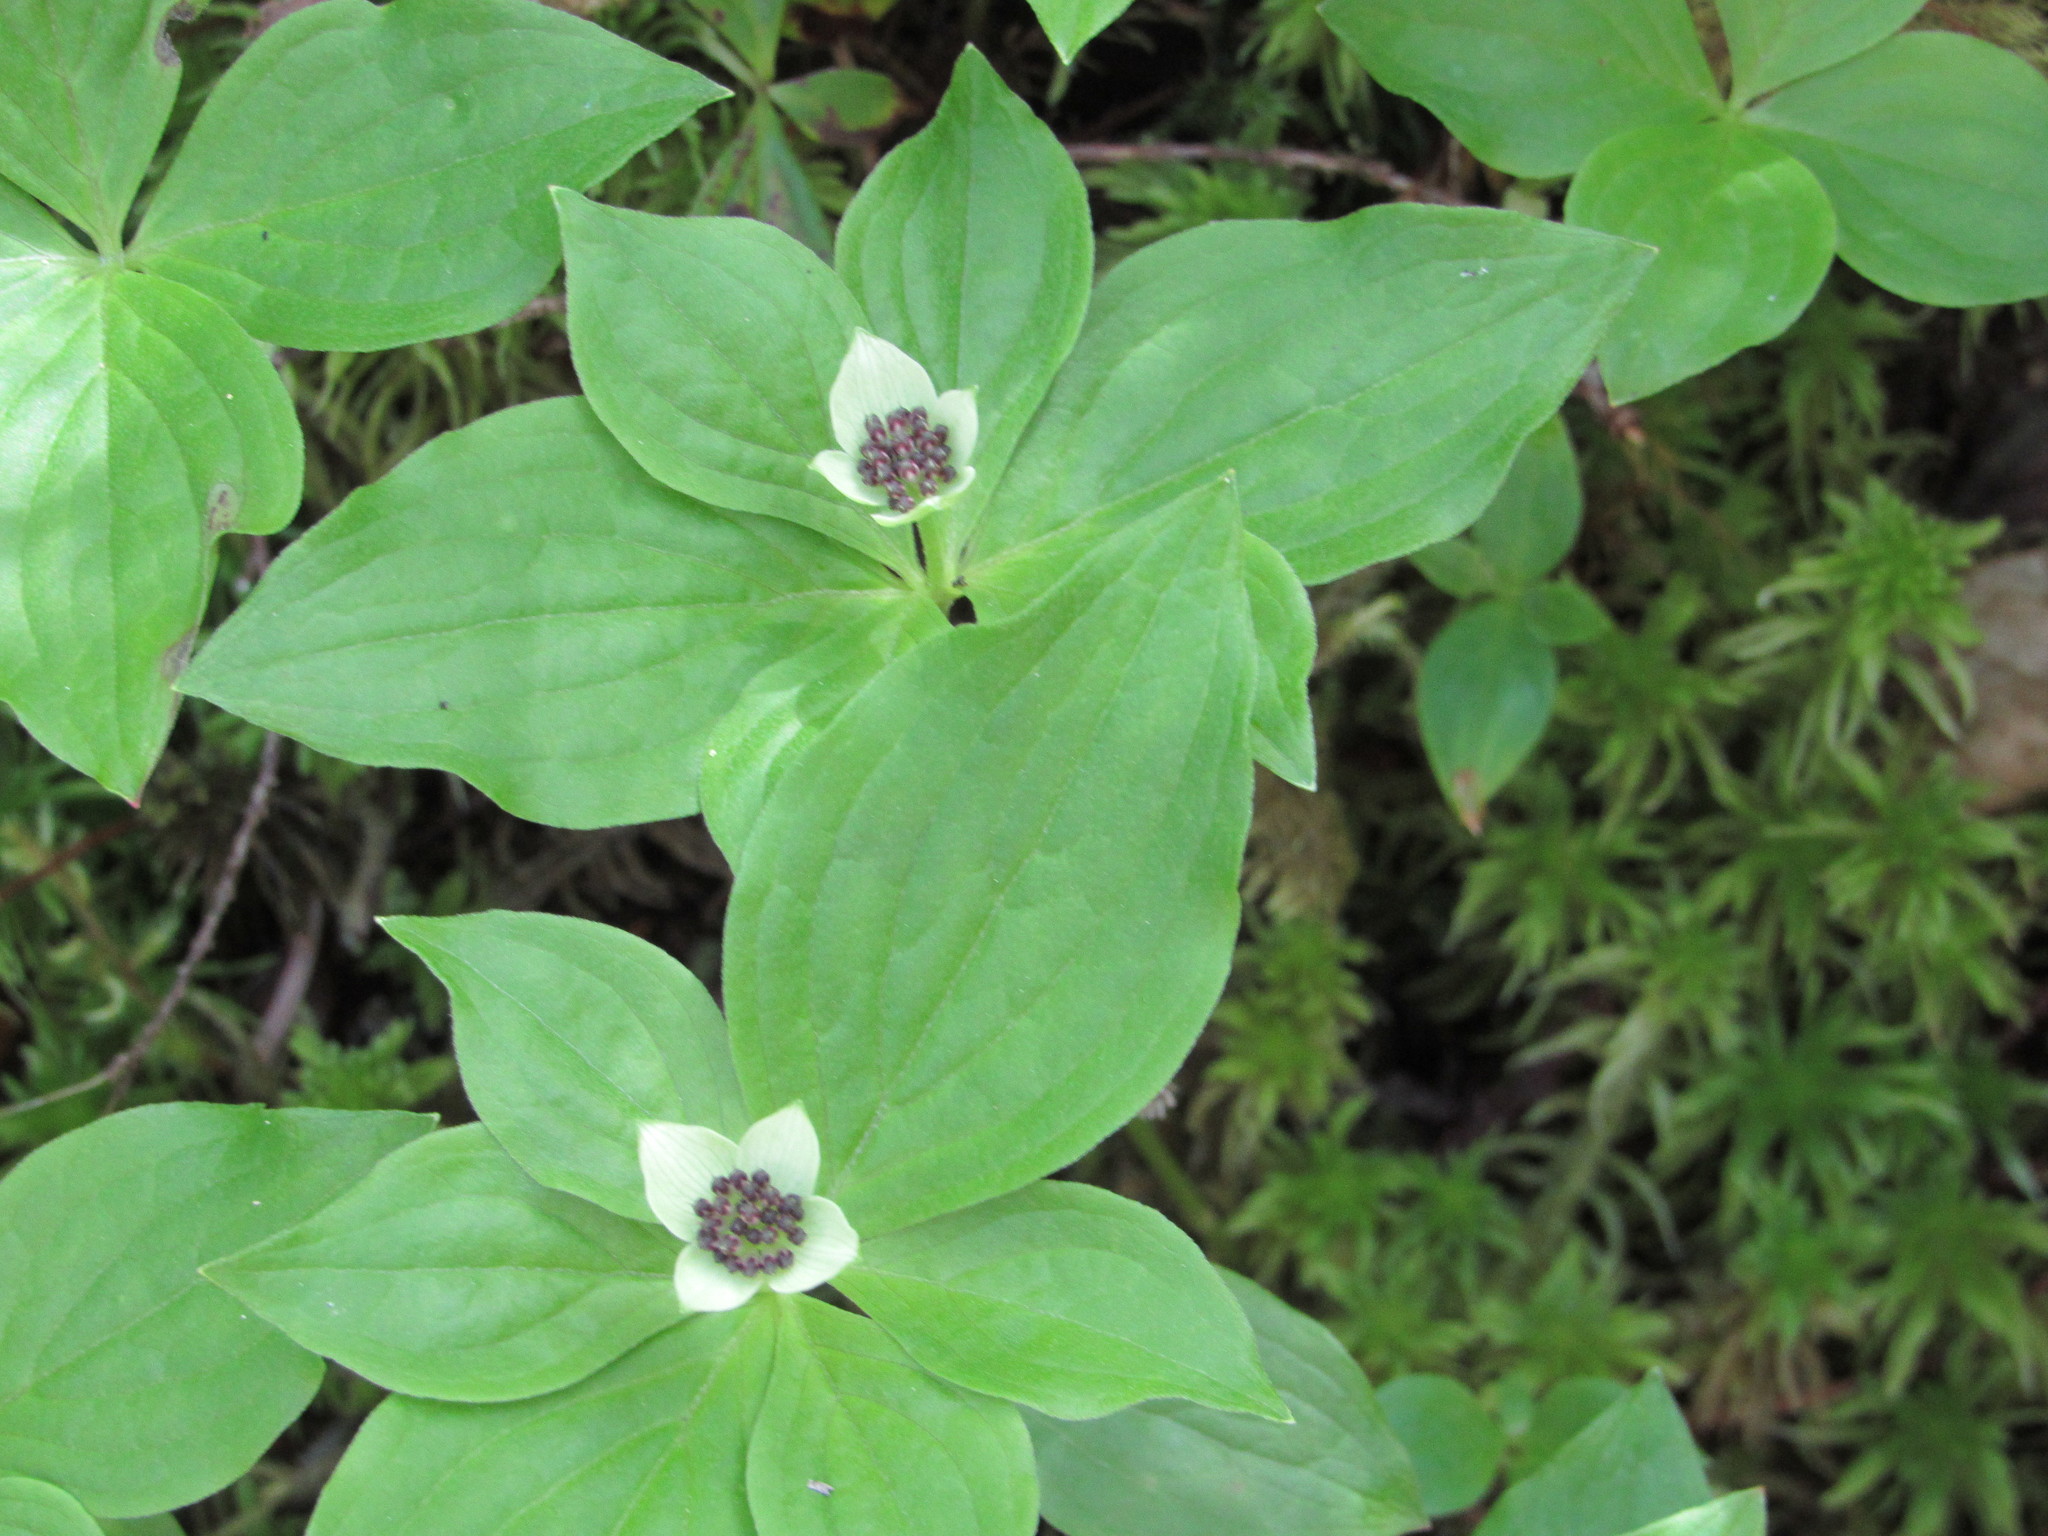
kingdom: Plantae
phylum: Tracheophyta
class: Magnoliopsida
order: Cornales
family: Cornaceae
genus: Cornus
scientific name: Cornus unalaschkensis
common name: Alaska bunchberry
